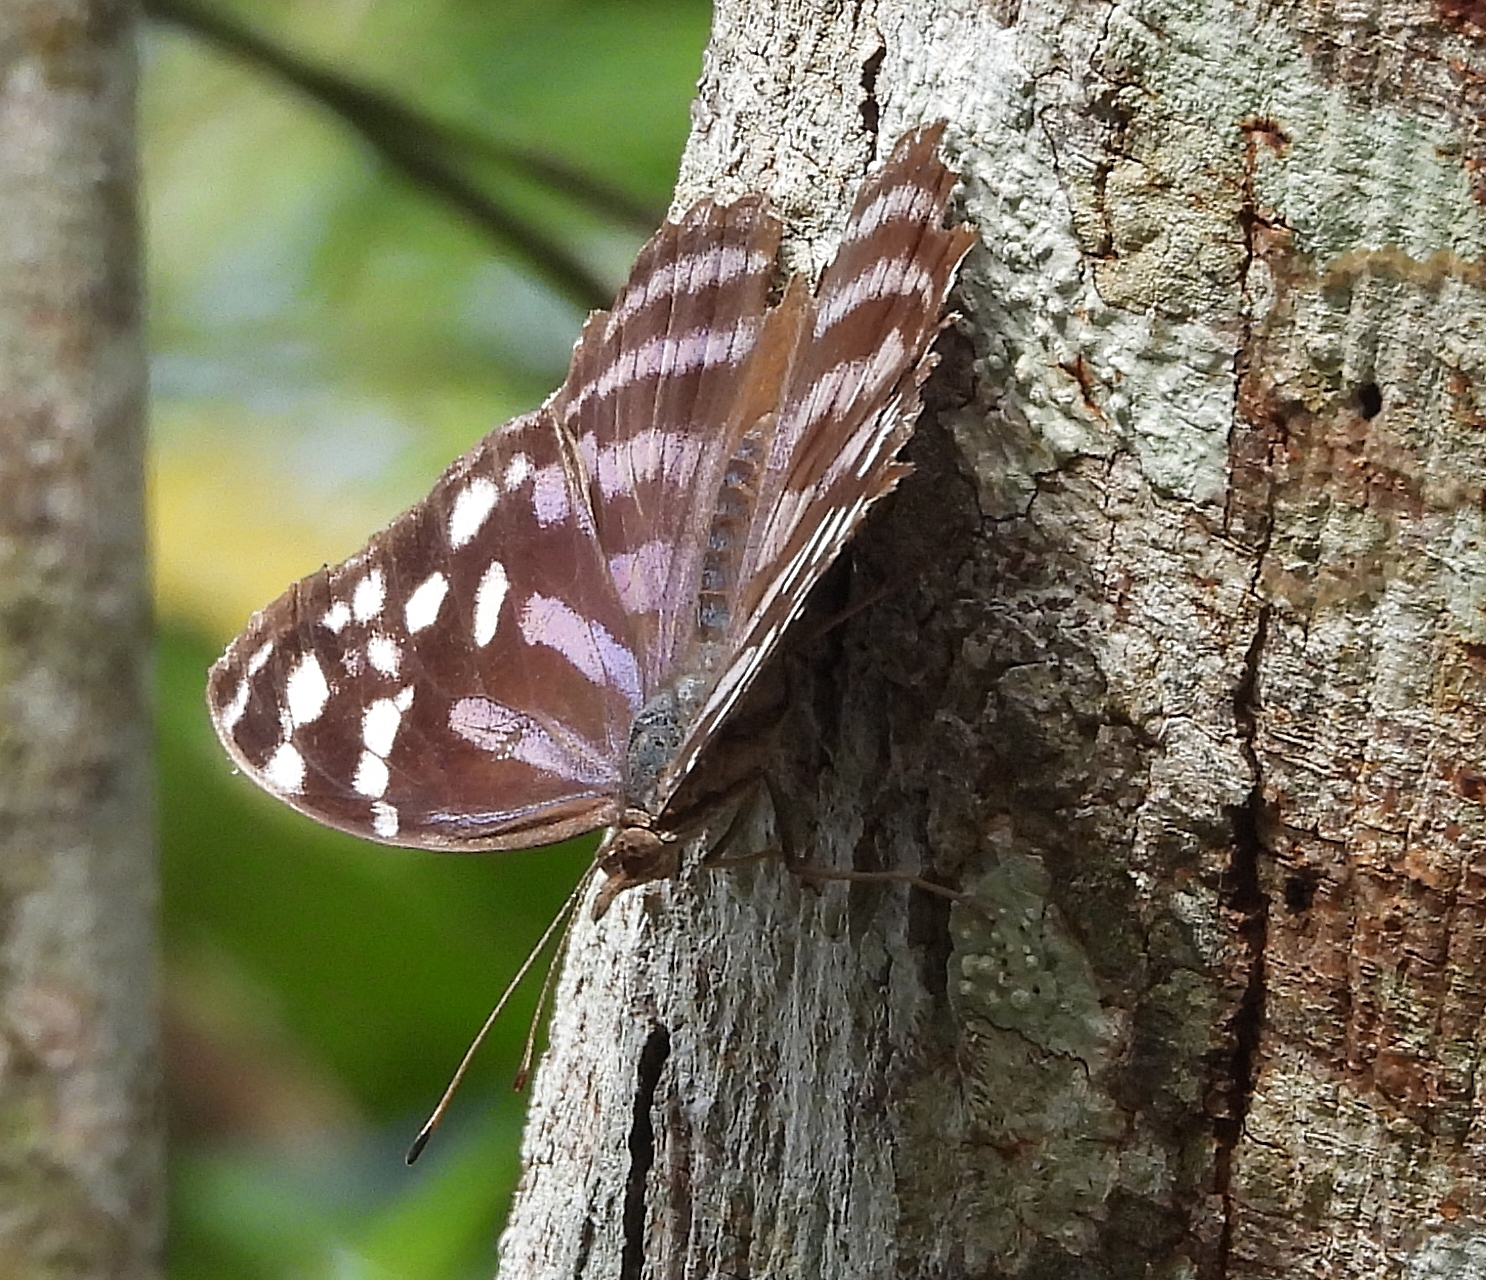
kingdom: Animalia
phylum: Arthropoda
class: Insecta
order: Lepidoptera
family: Nymphalidae
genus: Myscelia
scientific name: Myscelia ethusa
